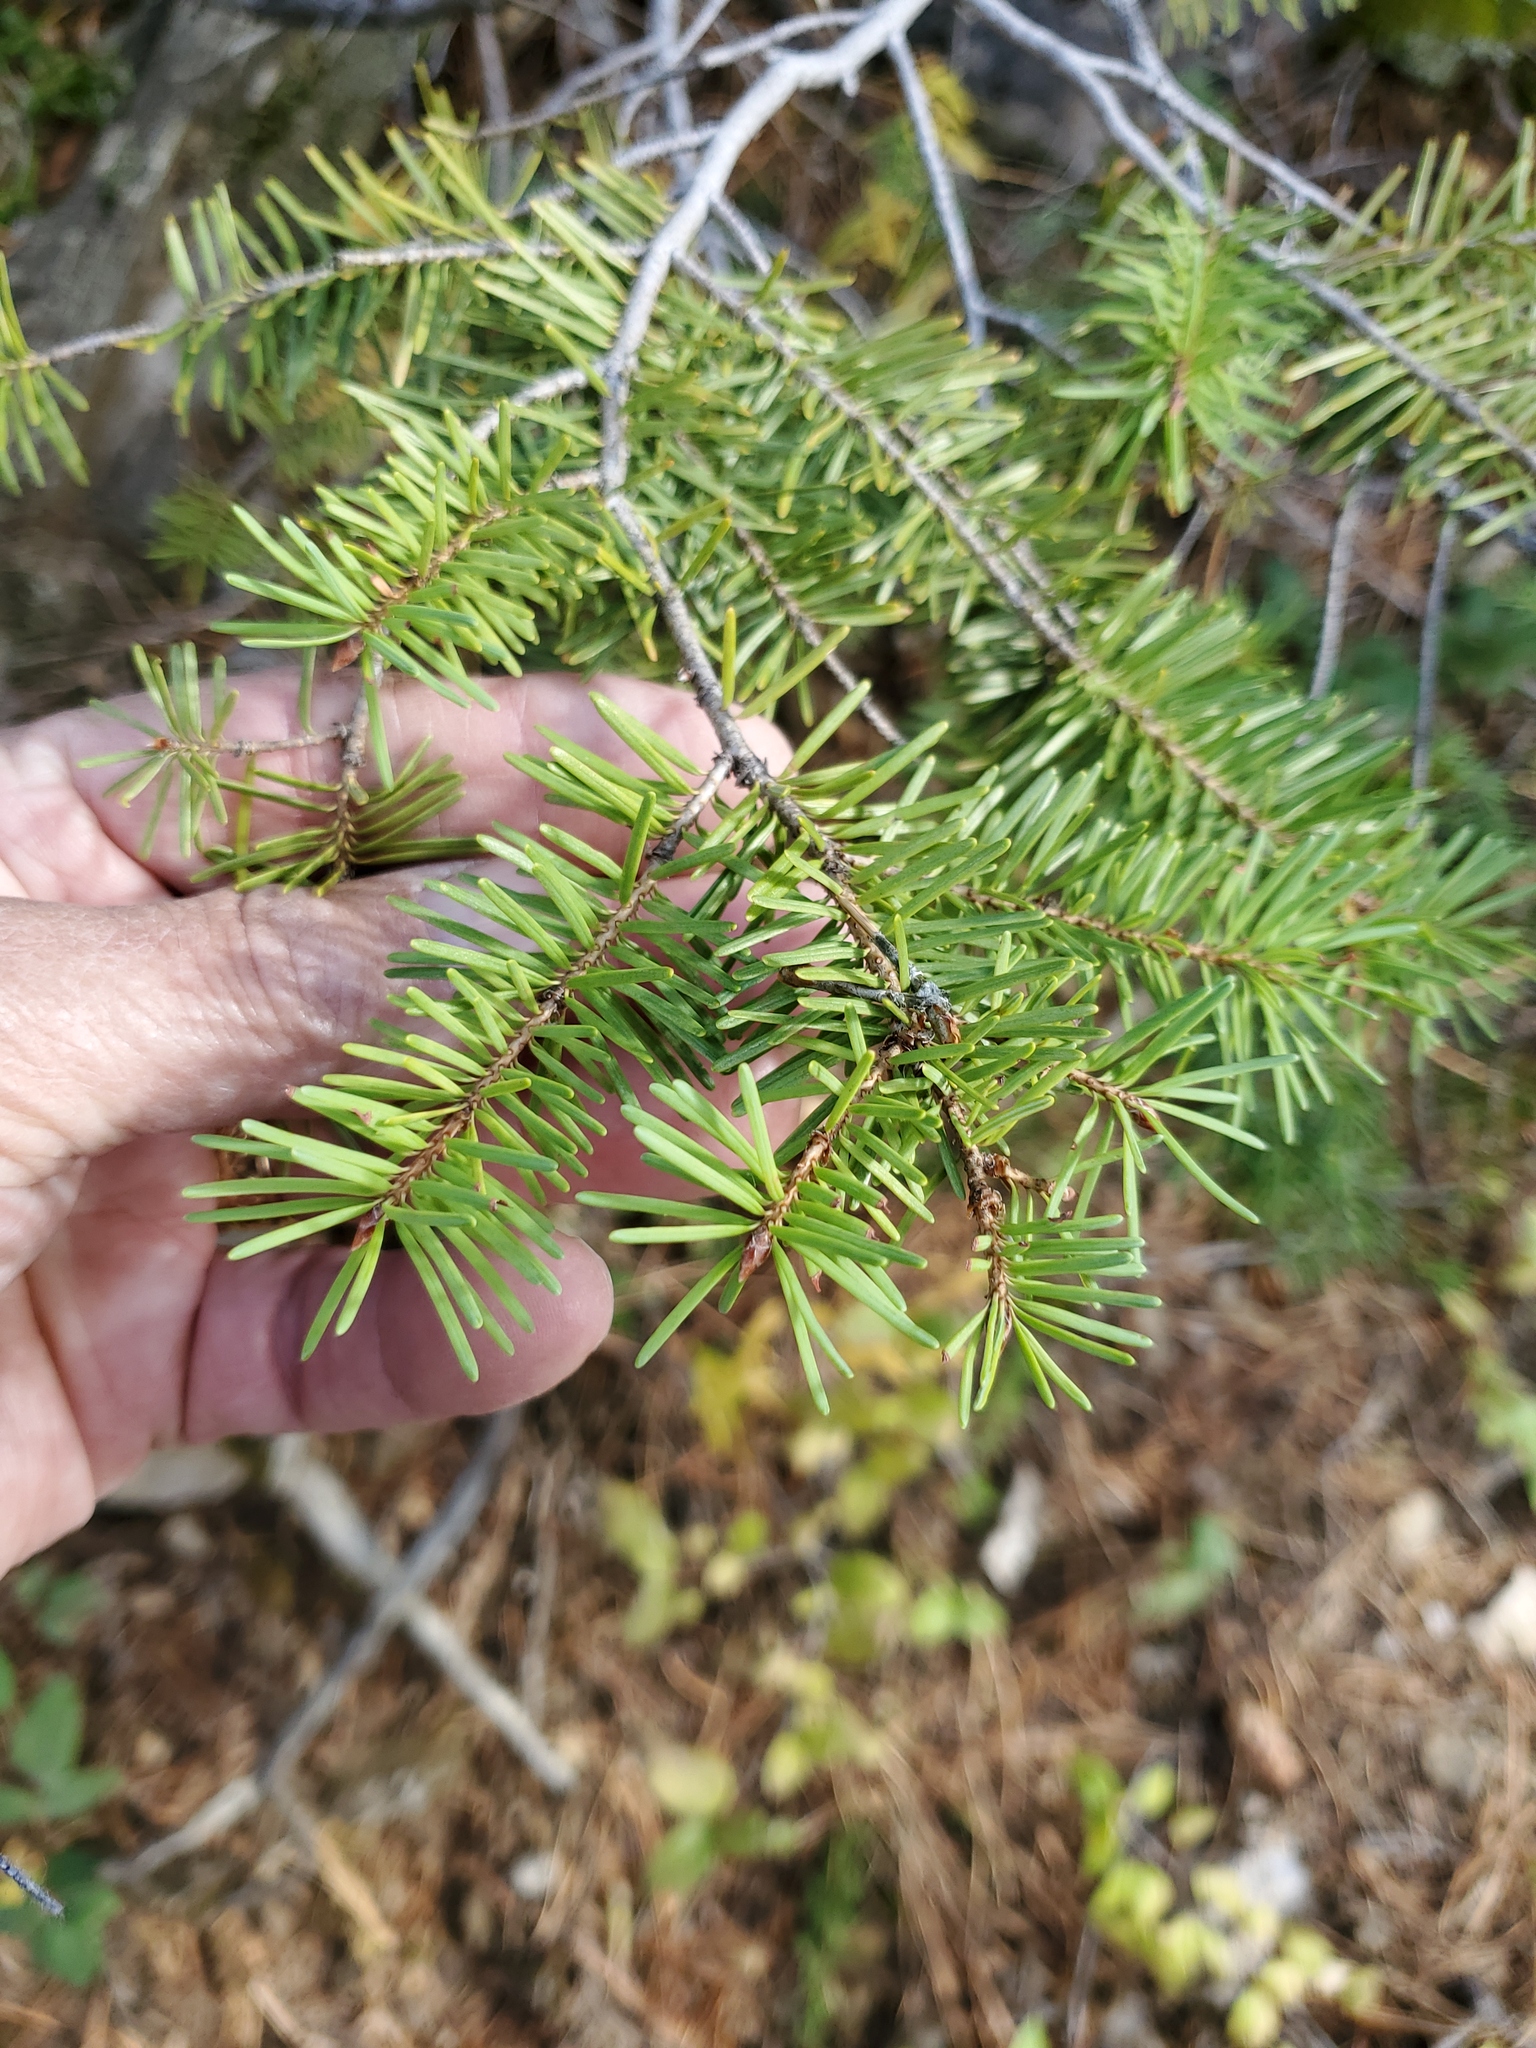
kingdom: Plantae
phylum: Tracheophyta
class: Pinopsida
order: Pinales
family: Pinaceae
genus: Pseudotsuga
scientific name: Pseudotsuga menziesii
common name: Douglas fir
